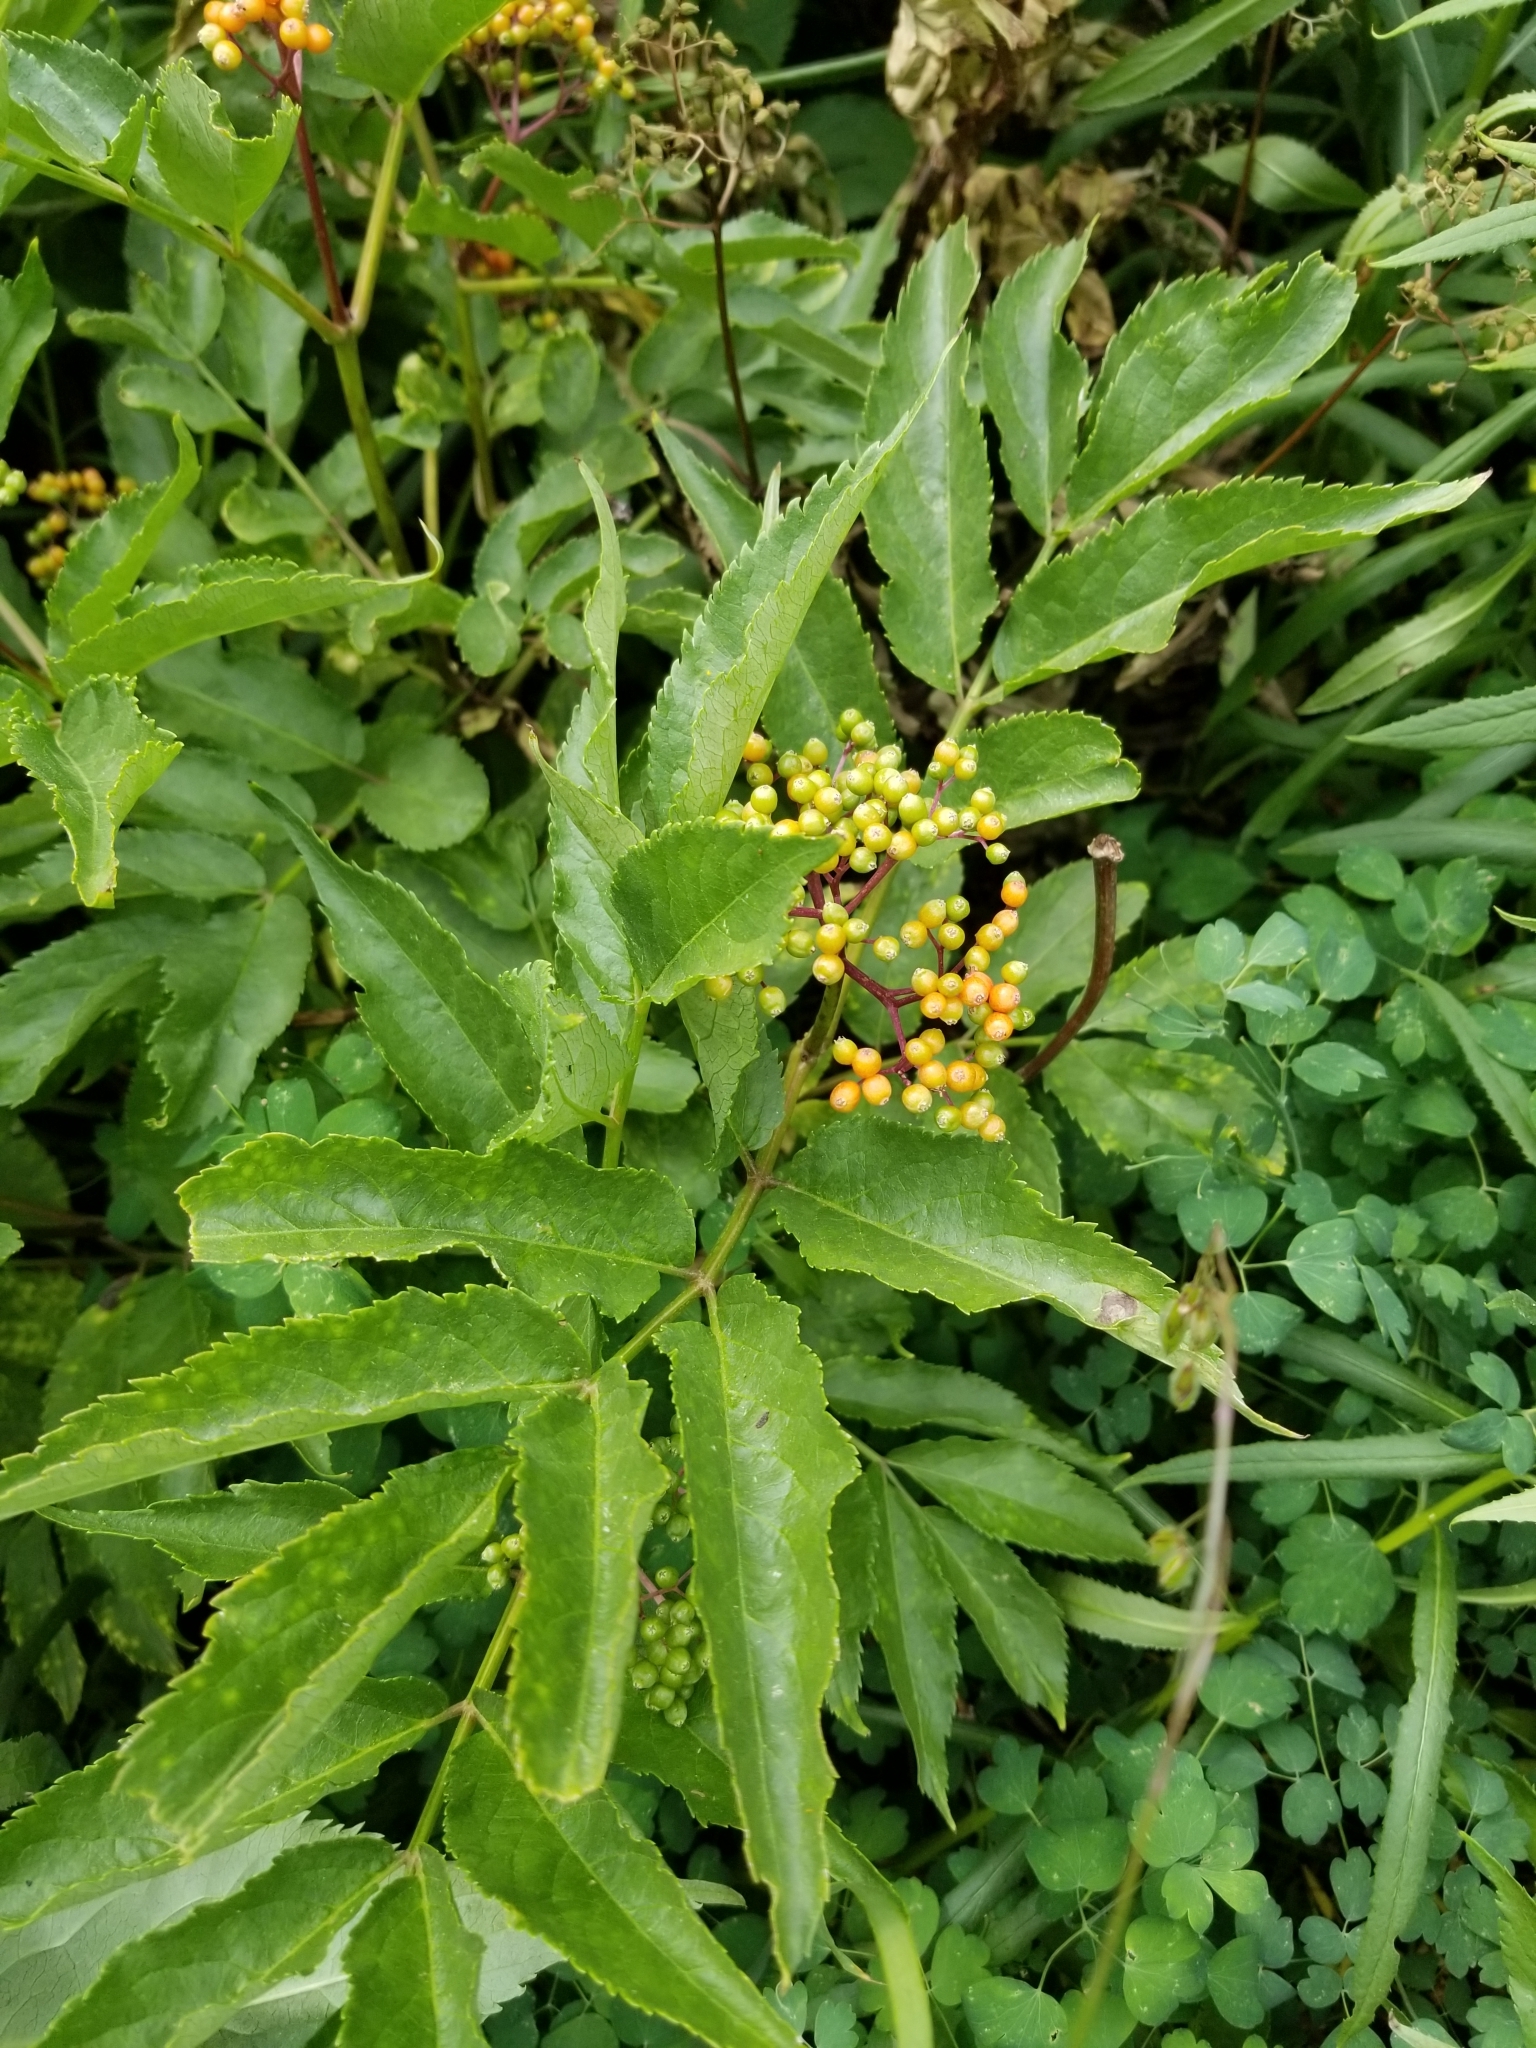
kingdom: Plantae
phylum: Tracheophyta
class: Magnoliopsida
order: Dipsacales
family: Viburnaceae
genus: Sambucus
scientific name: Sambucus racemosa
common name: Red-berried elder
